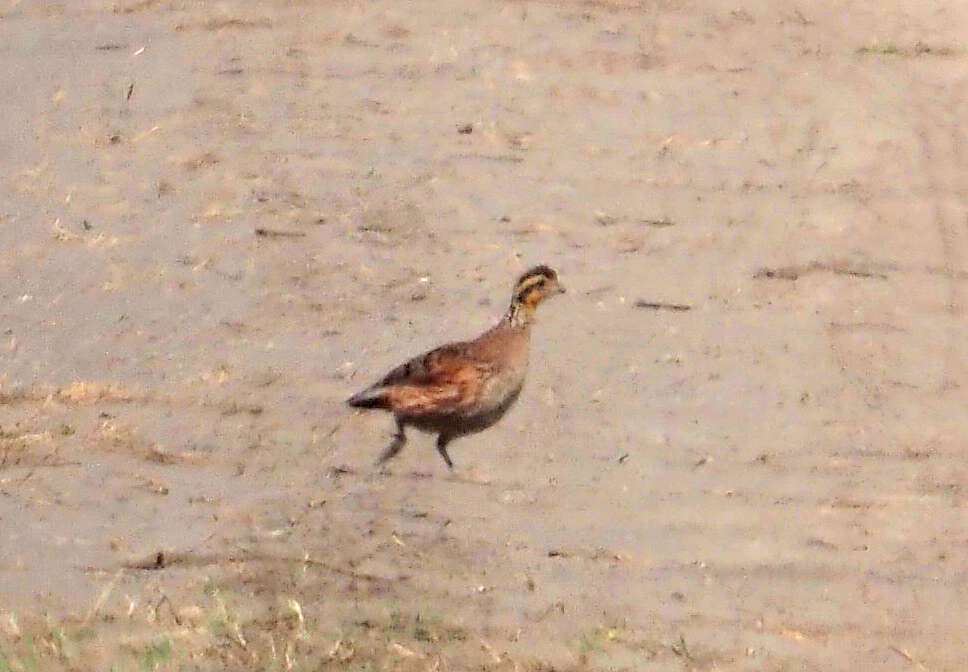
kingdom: Animalia
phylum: Chordata
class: Aves
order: Galliformes
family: Odontophoridae
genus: Colinus
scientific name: Colinus virginianus
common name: Northern bobwhite
